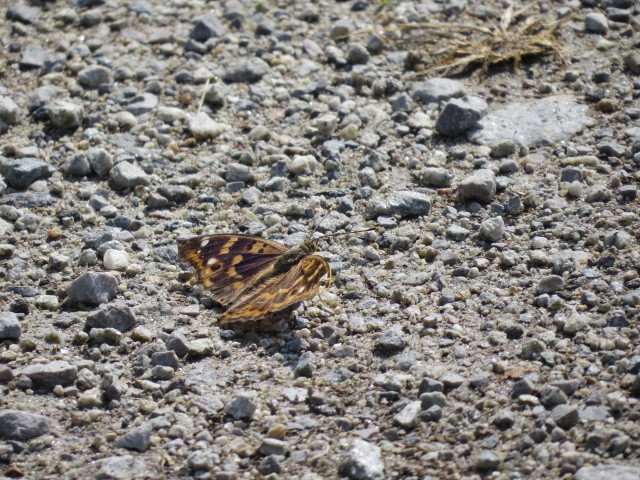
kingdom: Animalia
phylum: Arthropoda
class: Insecta
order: Lepidoptera
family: Nymphalidae
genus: Apatura
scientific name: Apatura ilia
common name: Lesser purple emperor
